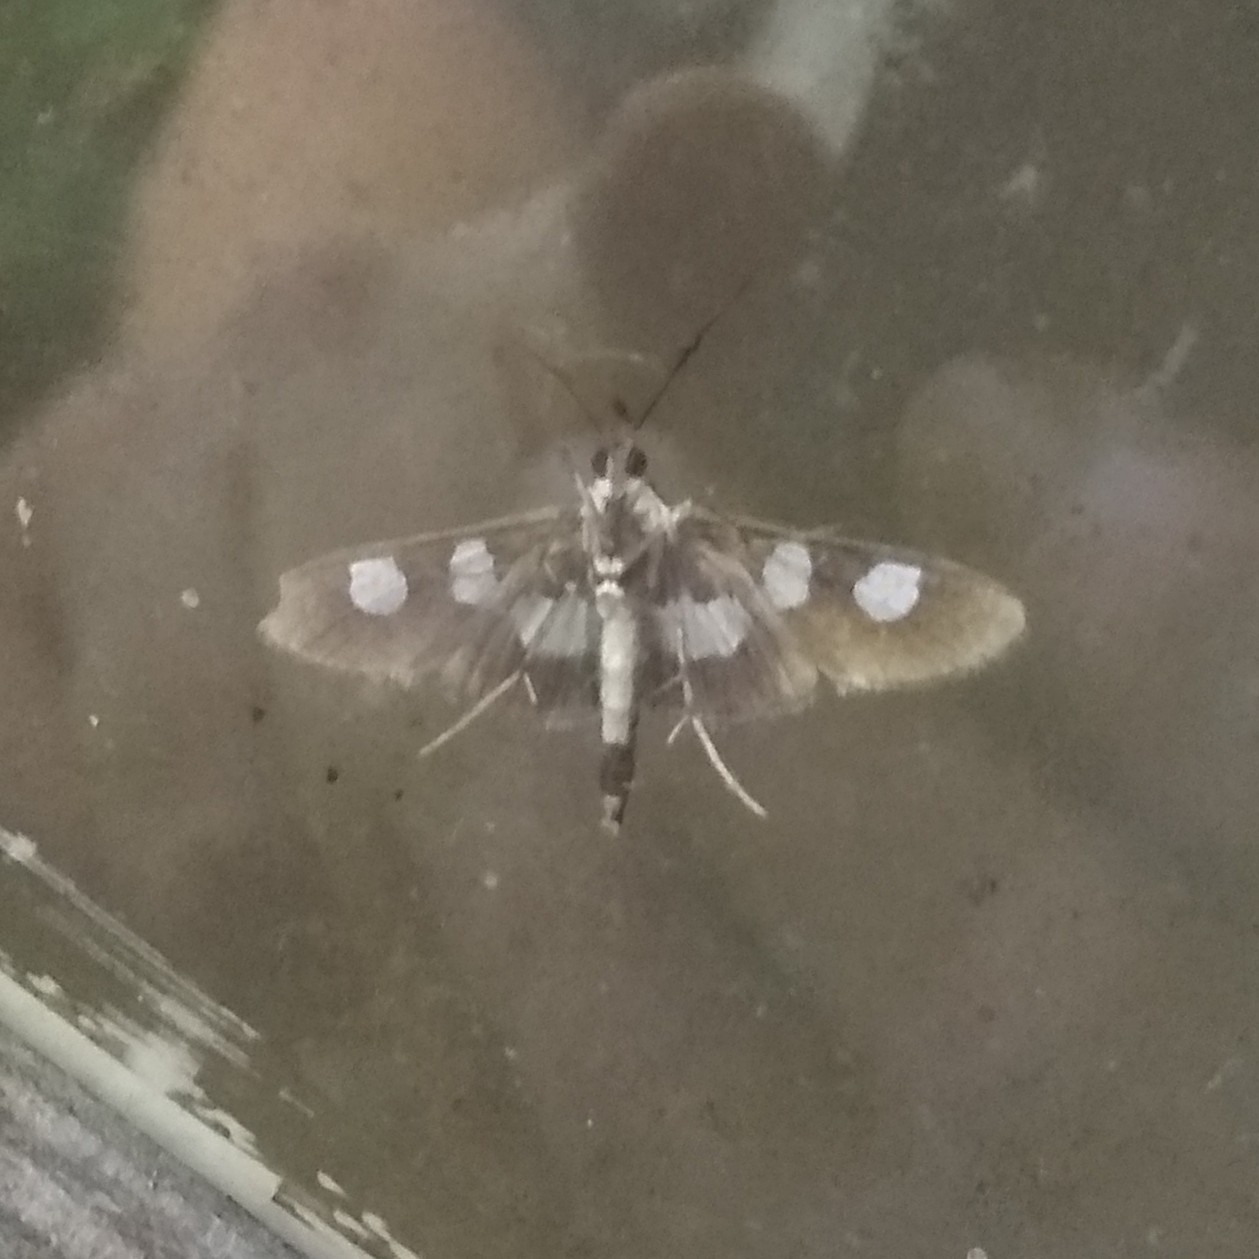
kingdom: Animalia
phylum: Arthropoda
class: Insecta
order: Lepidoptera
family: Crambidae
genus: Desmia
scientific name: Desmia funeralis
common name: Grape leaf folder moth
